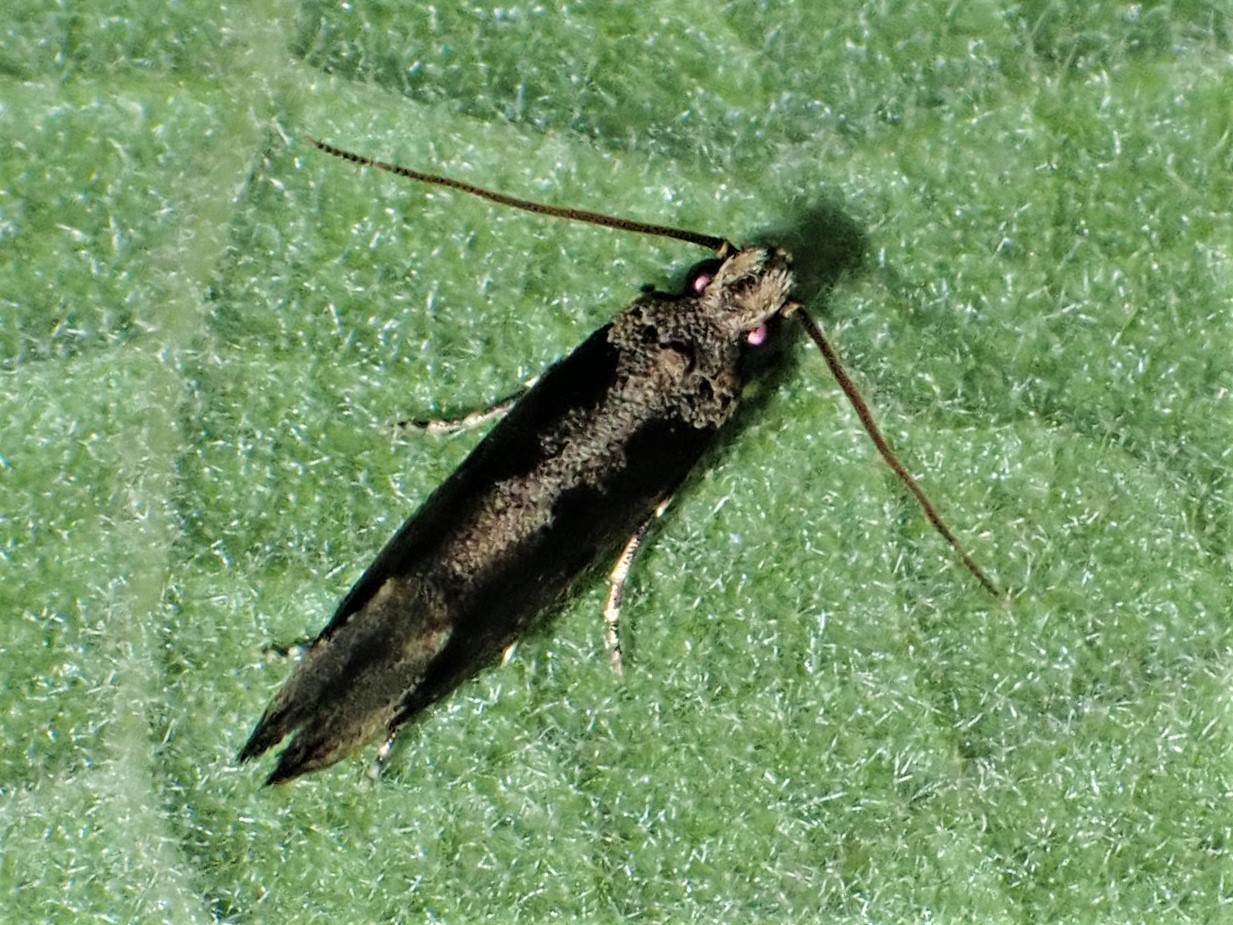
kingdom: Animalia
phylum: Arthropoda
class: Insecta
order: Lepidoptera
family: Tineidae
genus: Erechthias
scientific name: Erechthias capnitis
